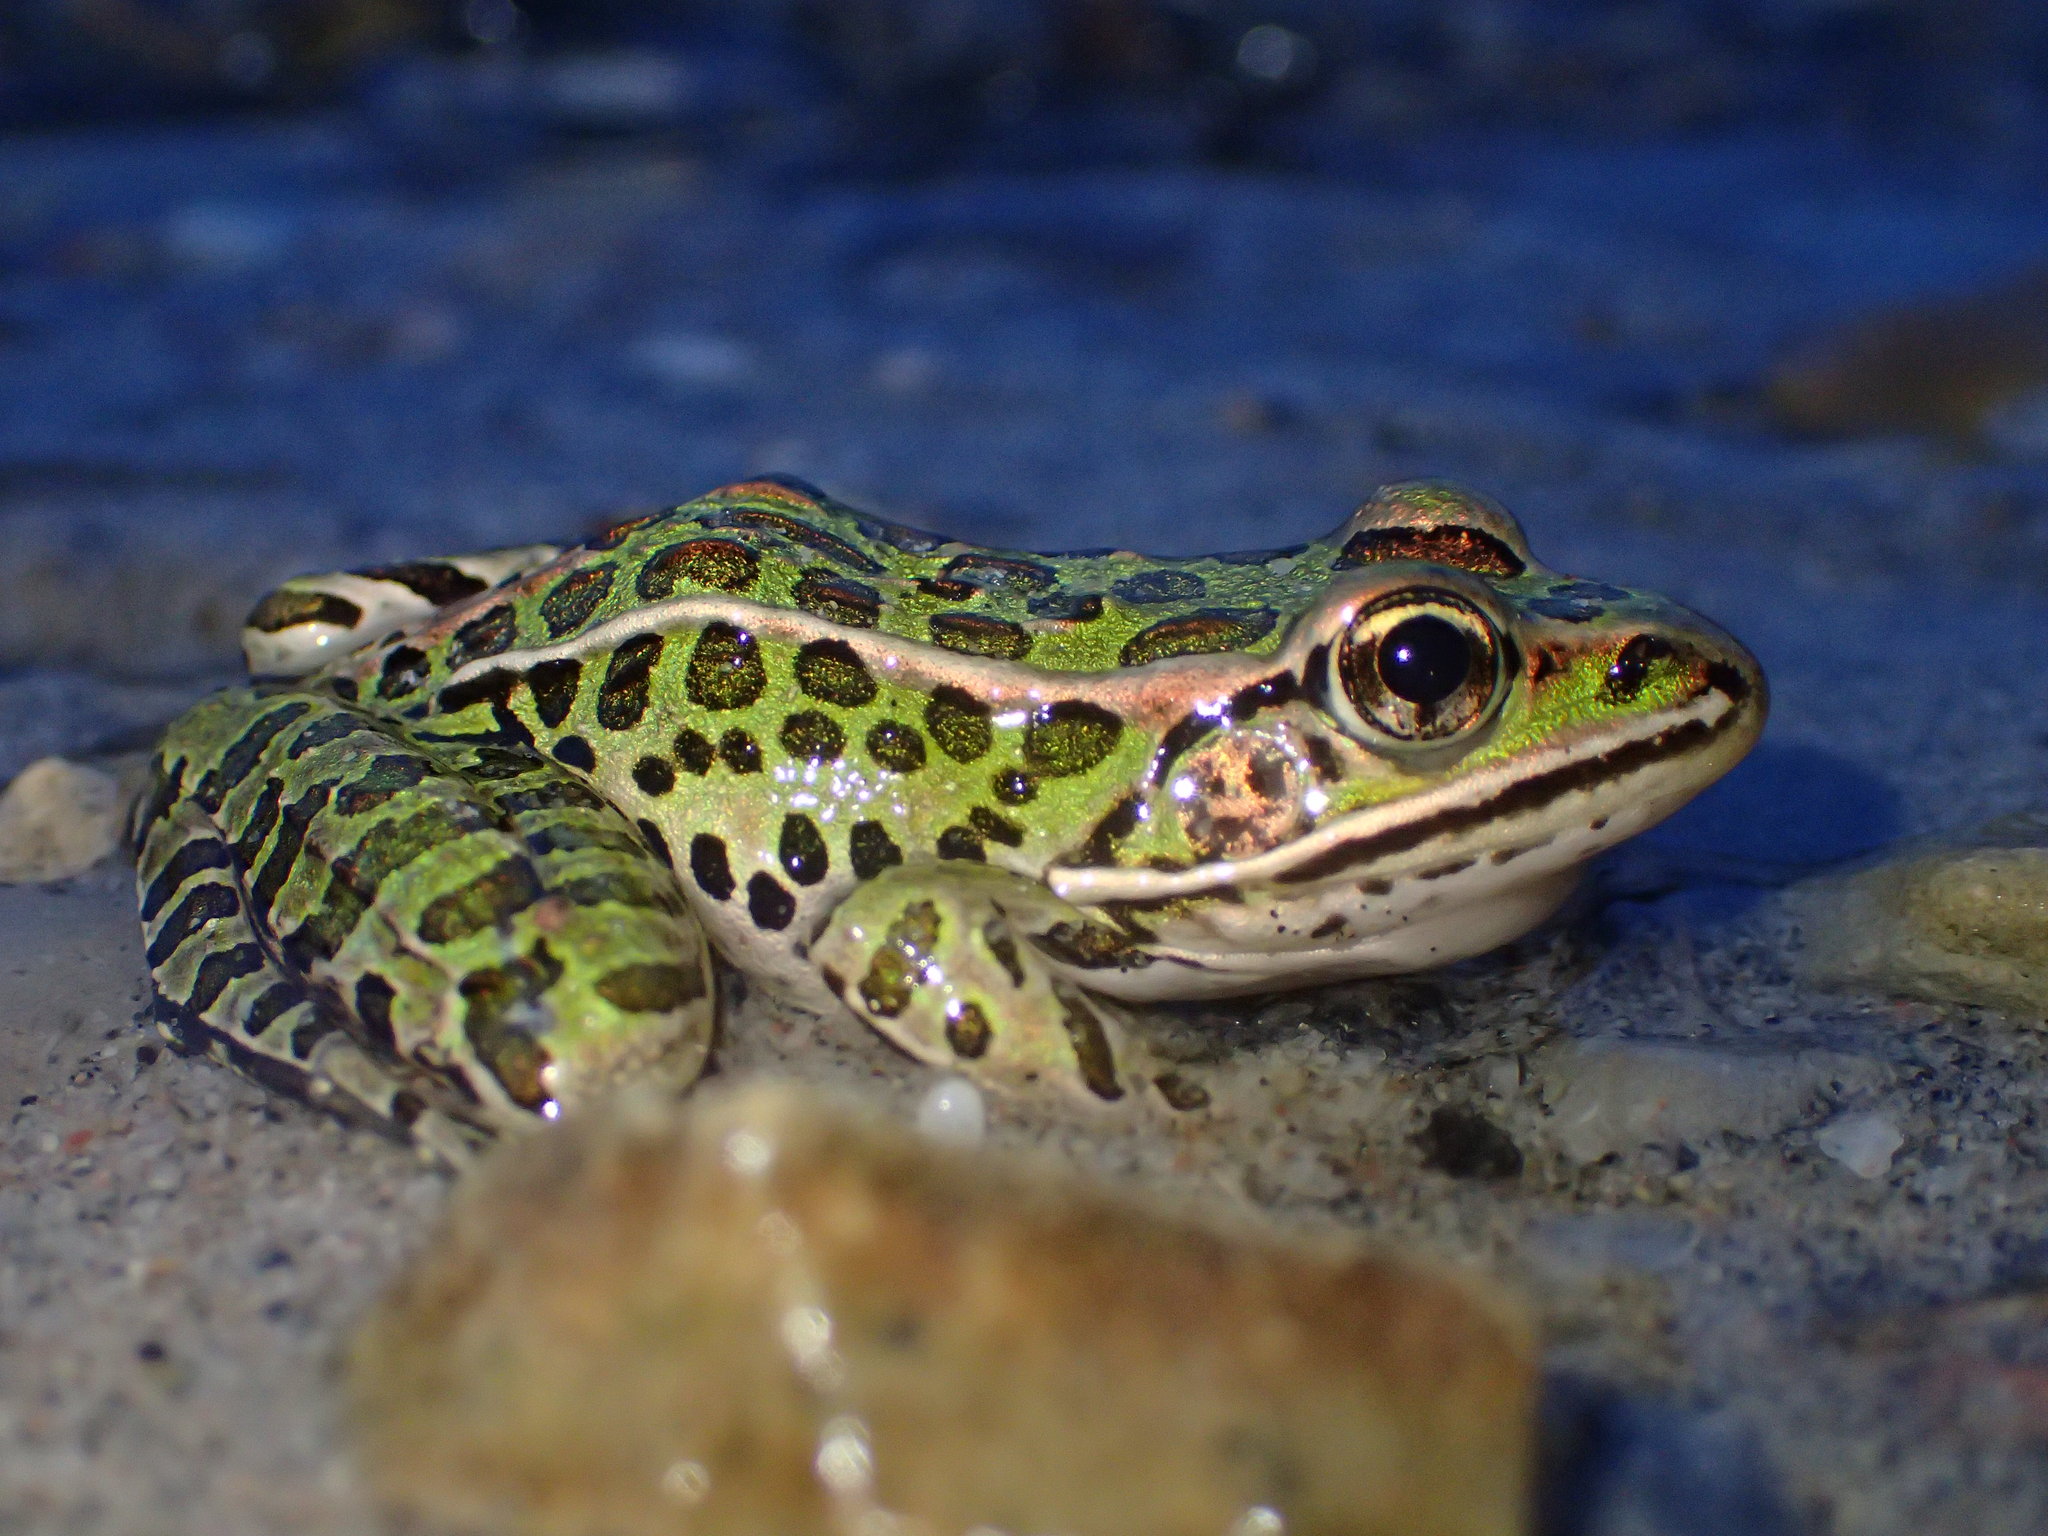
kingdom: Animalia
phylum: Chordata
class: Amphibia
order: Anura
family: Ranidae
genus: Lithobates
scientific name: Lithobates pipiens
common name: Northern leopard frog
